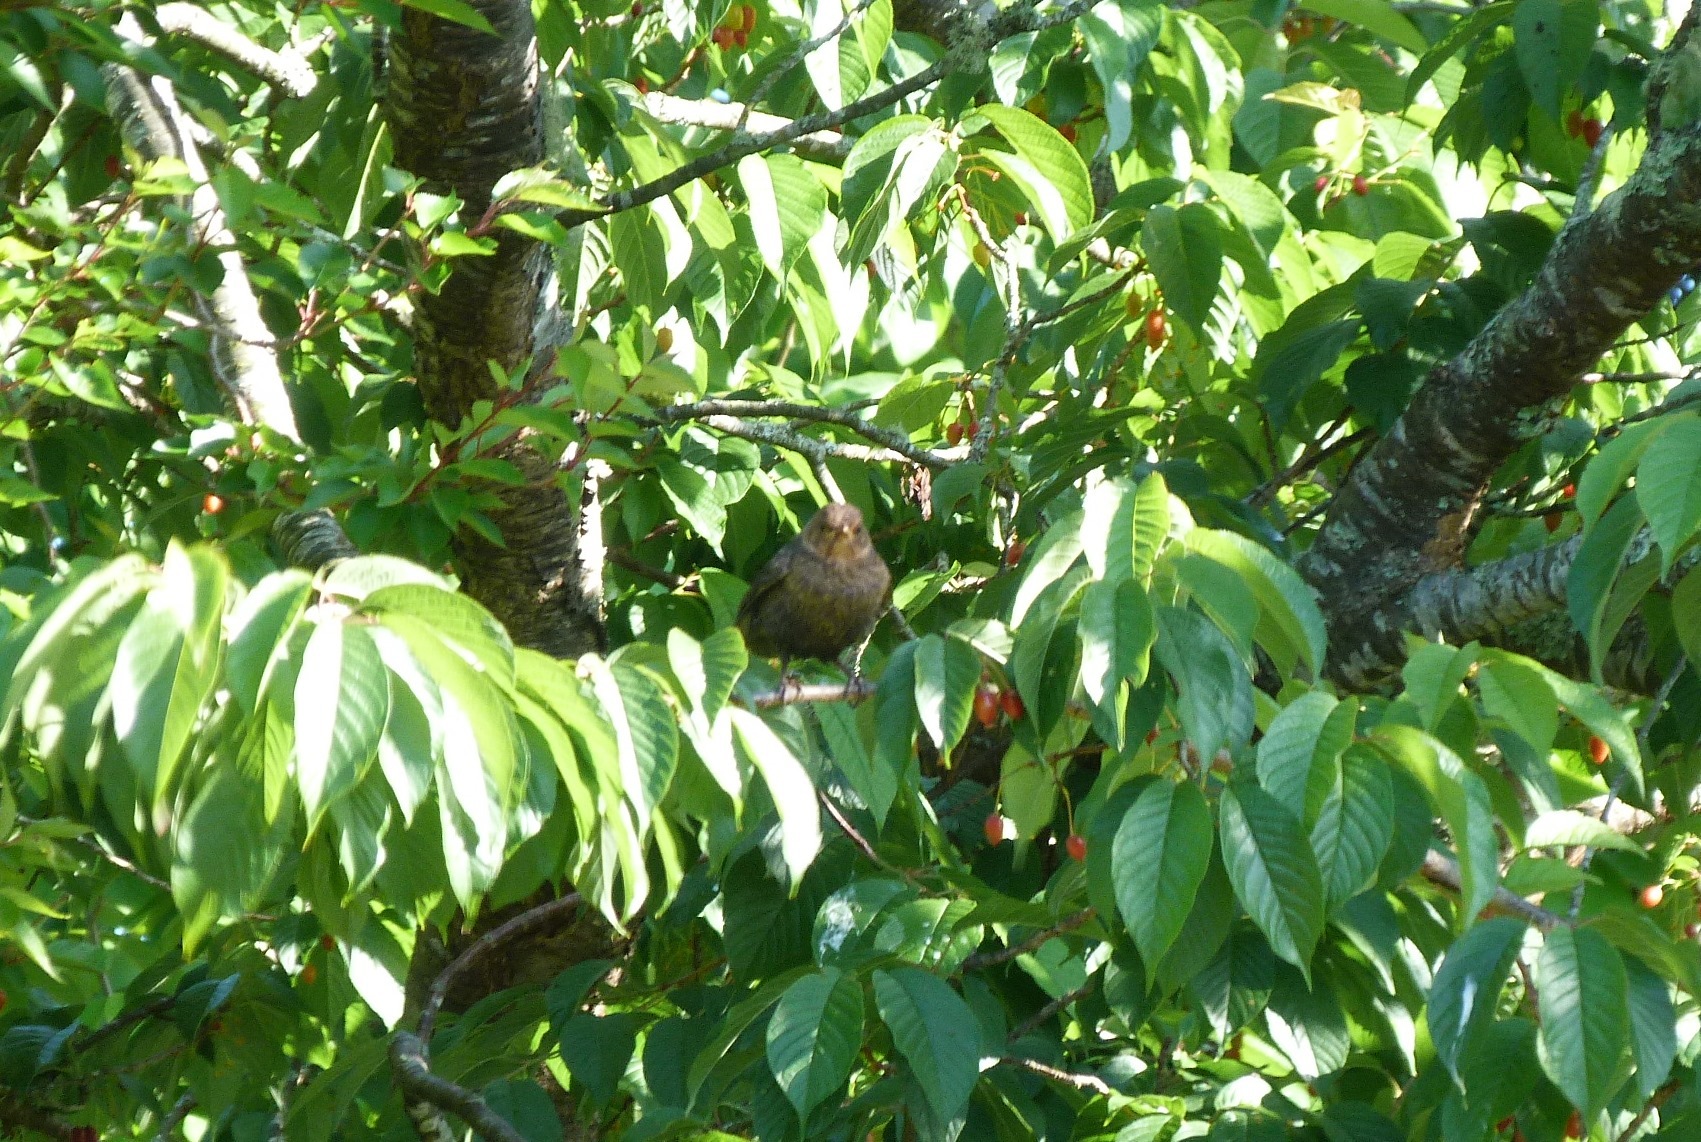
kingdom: Animalia
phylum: Chordata
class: Aves
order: Passeriformes
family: Turdidae
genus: Turdus
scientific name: Turdus merula
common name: Common blackbird
